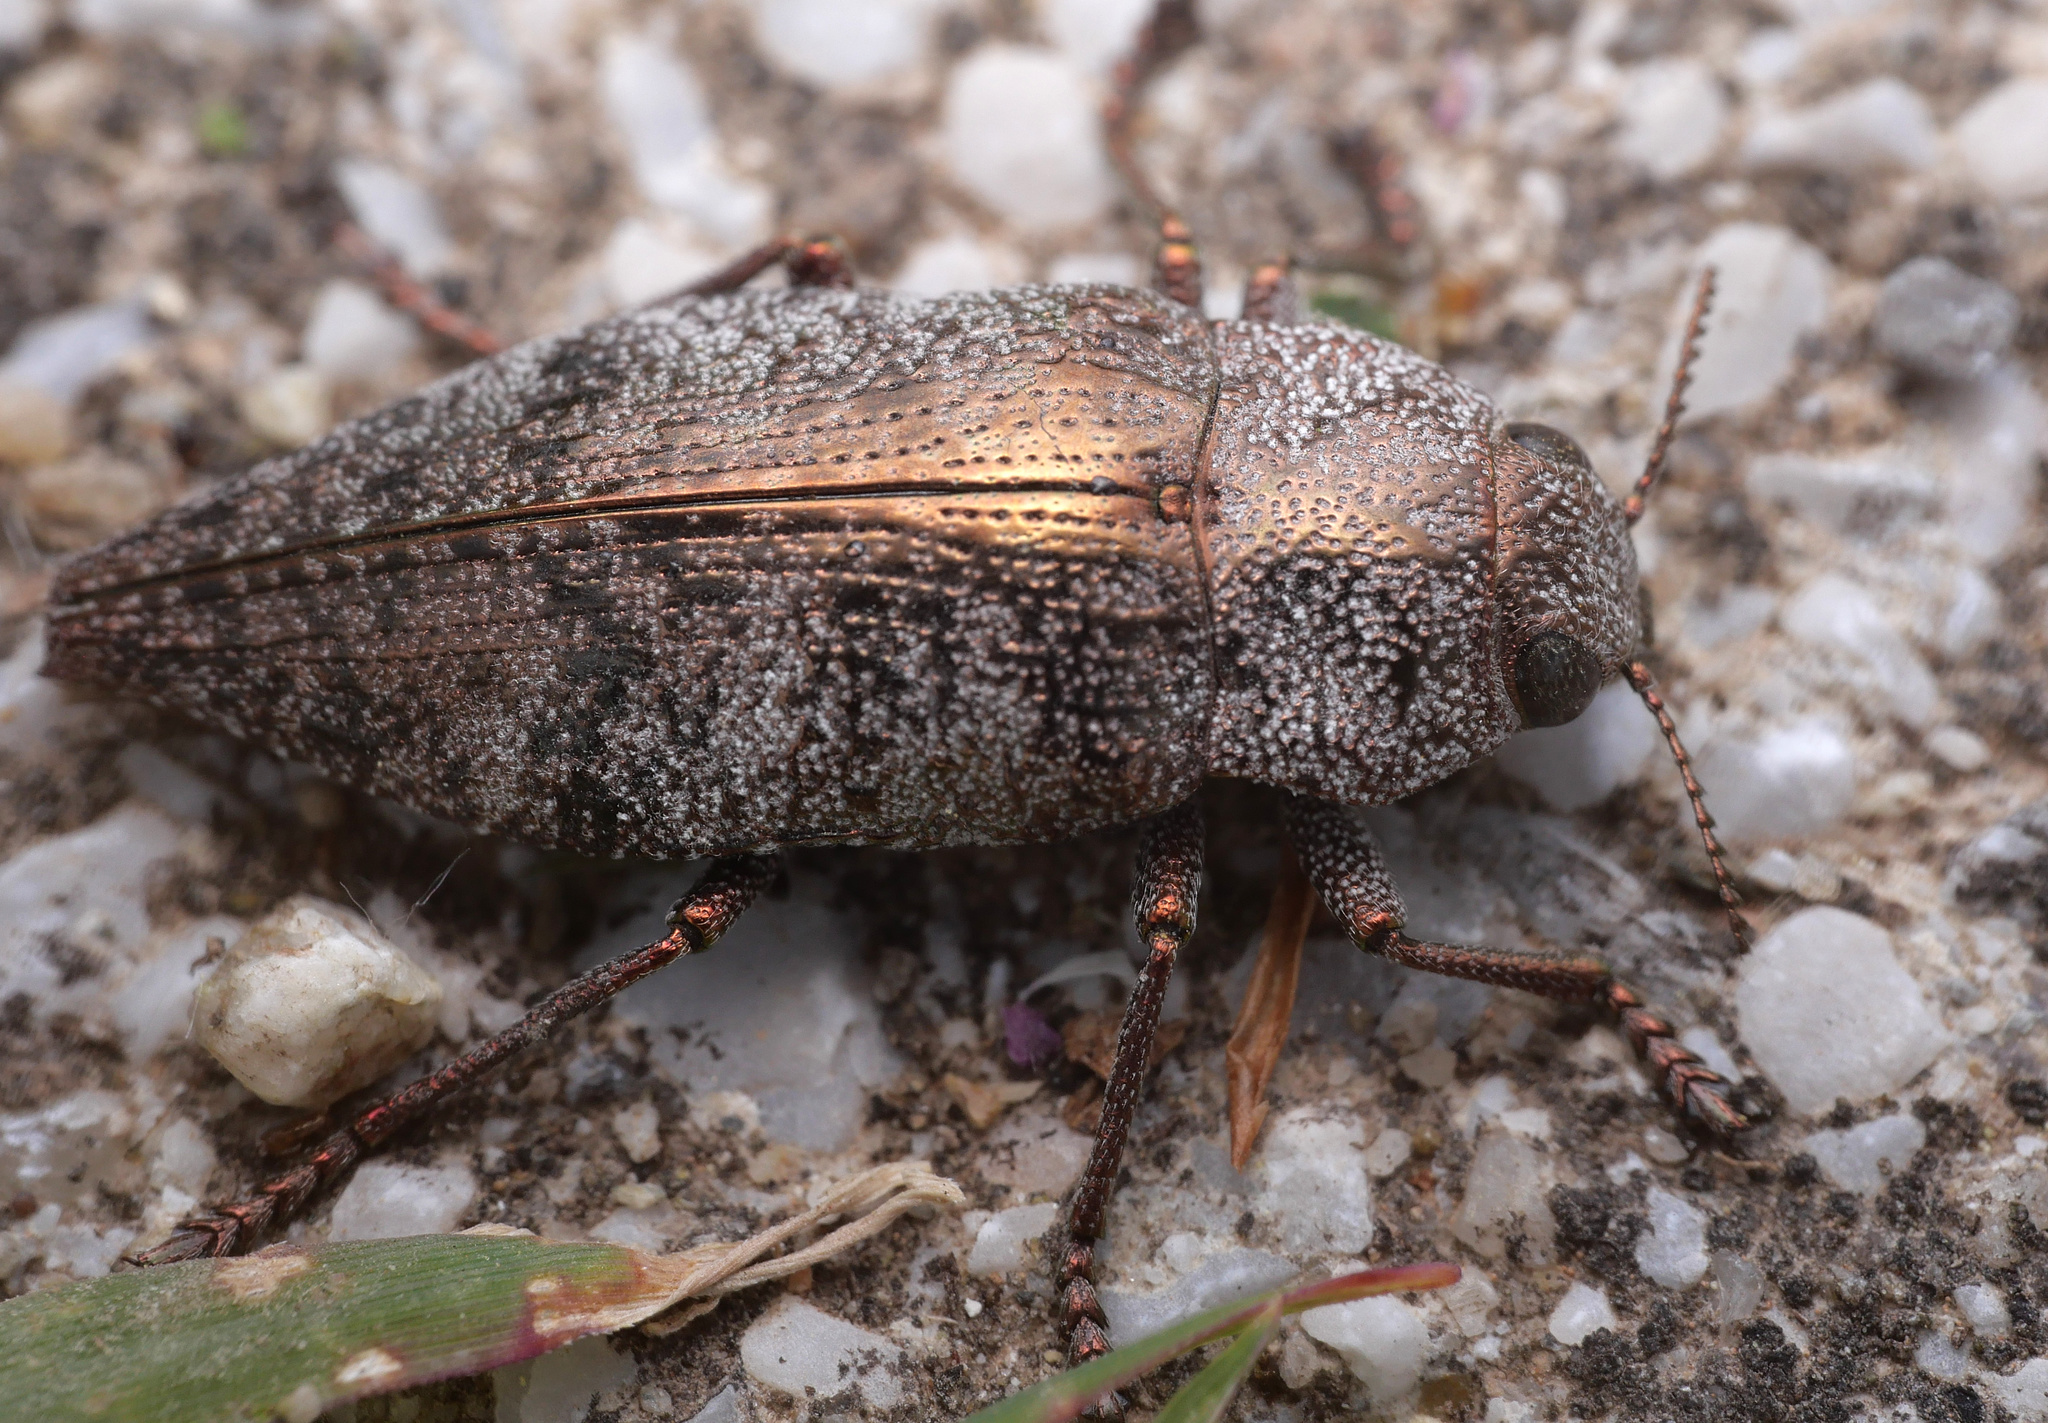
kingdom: Animalia
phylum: Arthropoda
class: Insecta
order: Coleoptera
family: Buprestidae
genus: Dicerca
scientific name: Dicerca aenea
